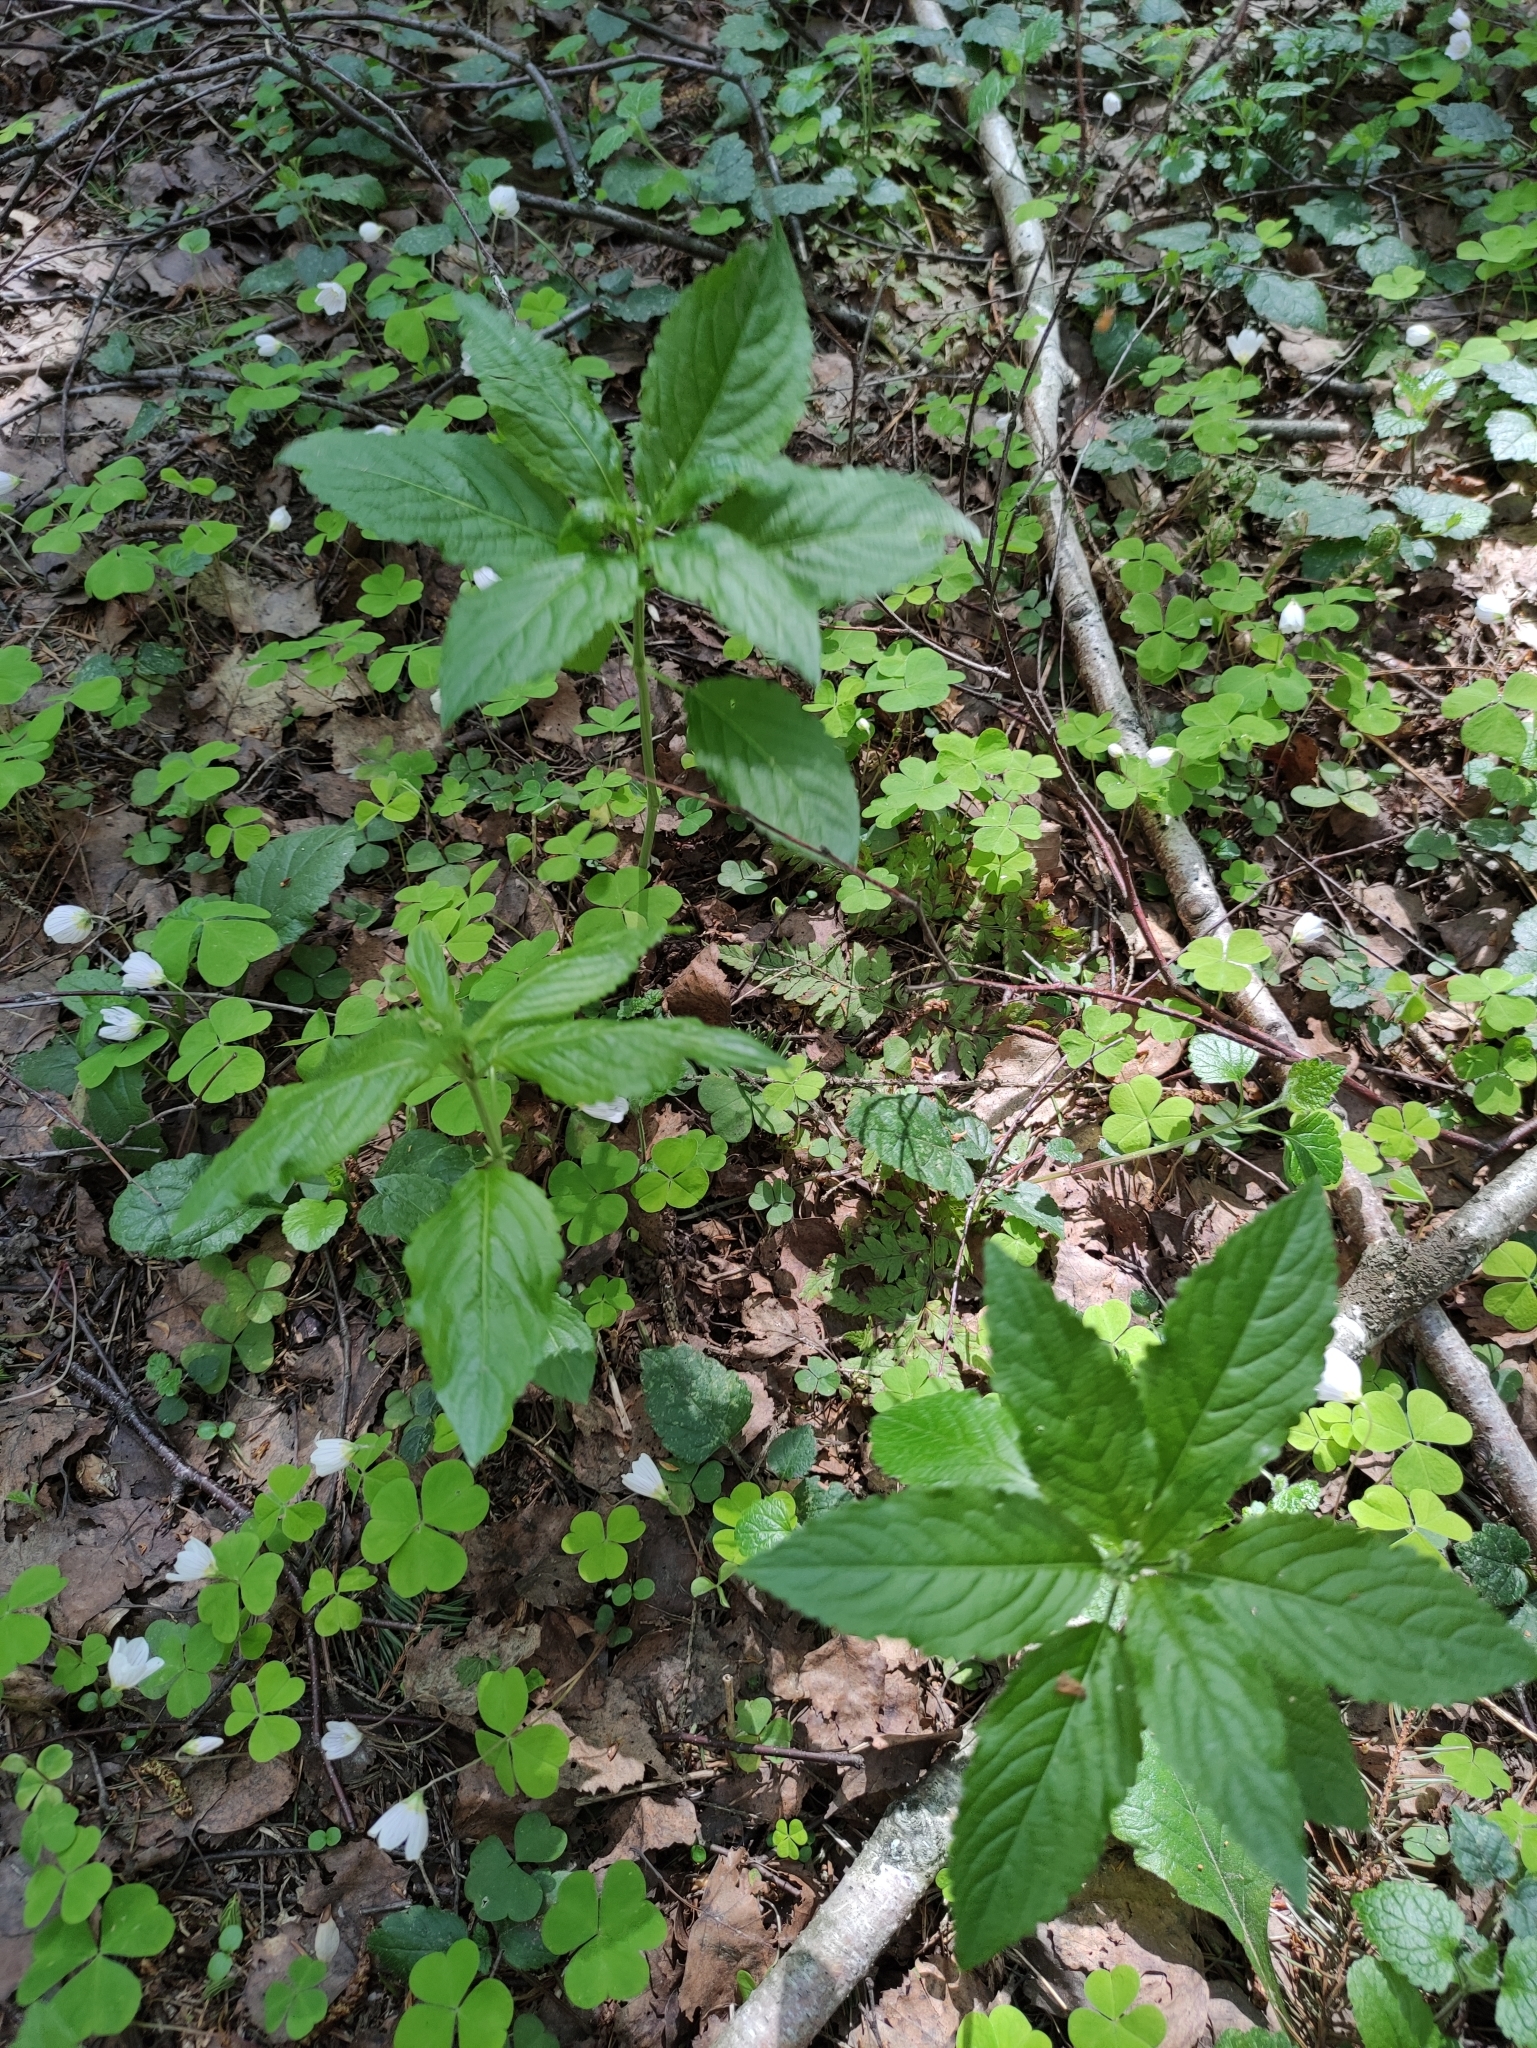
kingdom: Plantae
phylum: Tracheophyta
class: Magnoliopsida
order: Malpighiales
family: Euphorbiaceae
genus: Mercurialis
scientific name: Mercurialis perennis
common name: Dog mercury
